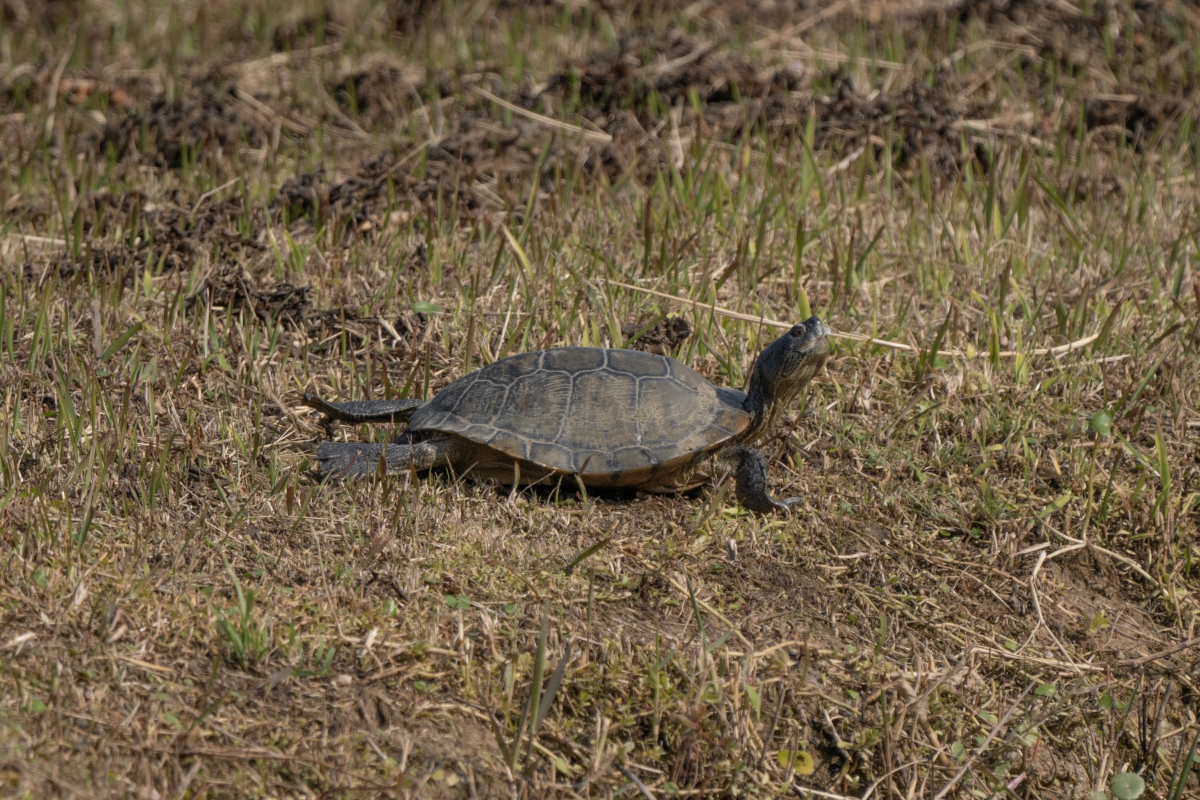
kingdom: Animalia
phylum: Chordata
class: Testudines
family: Emydidae
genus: Trachemys
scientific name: Trachemys scripta
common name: Slider
